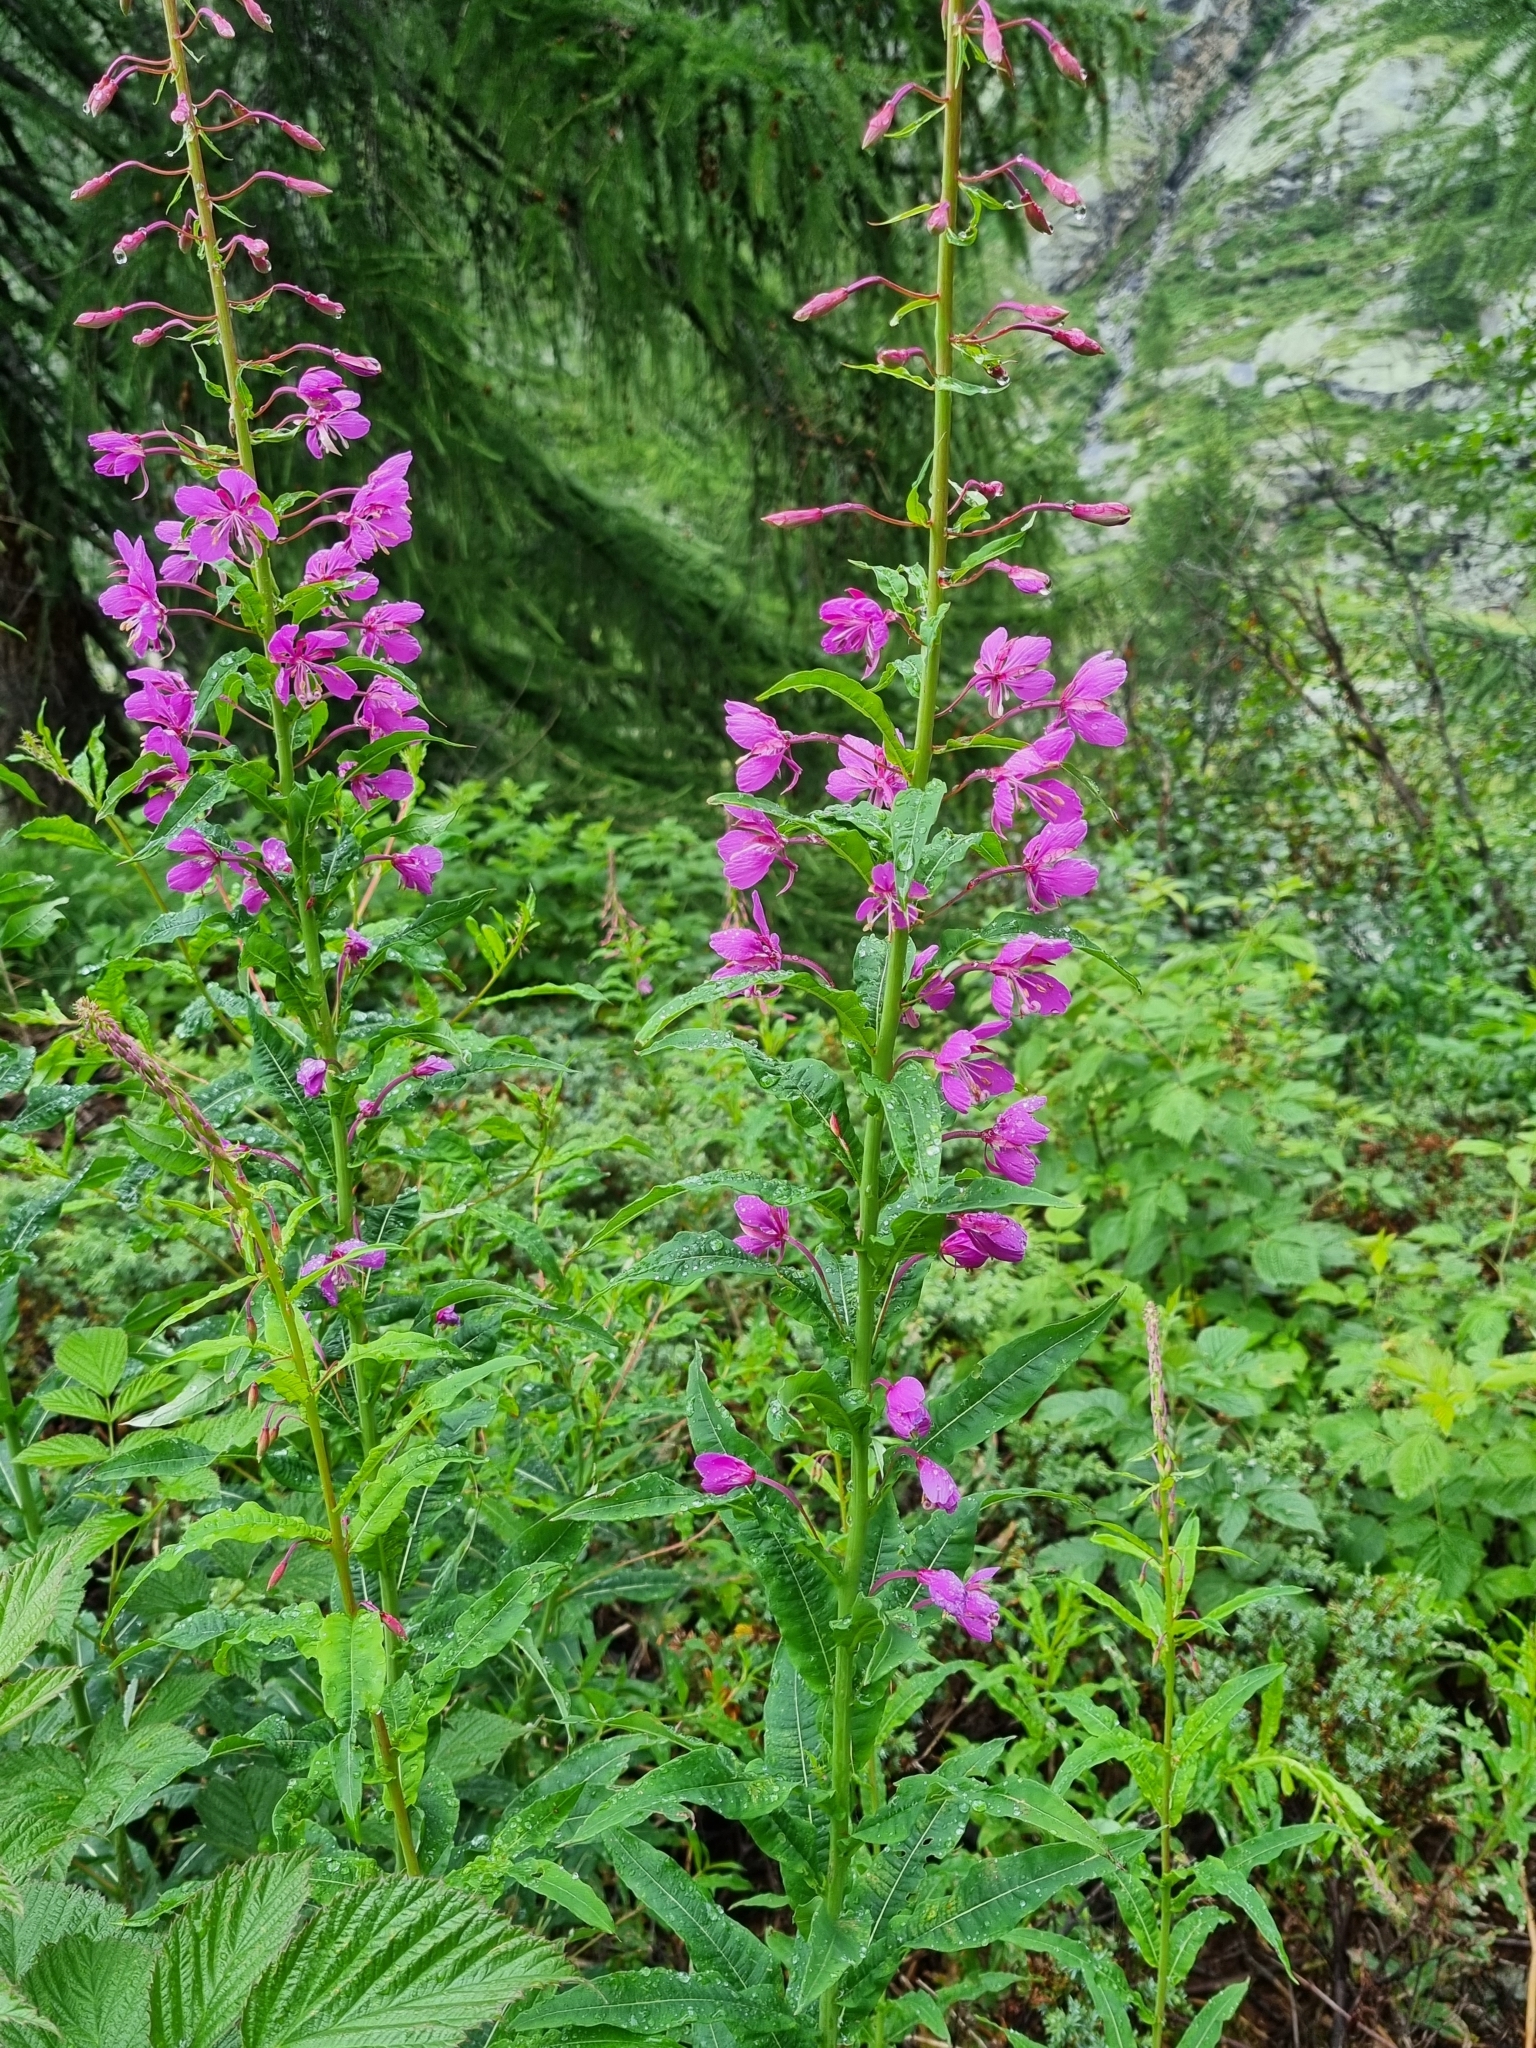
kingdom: Plantae
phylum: Tracheophyta
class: Magnoliopsida
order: Myrtales
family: Onagraceae
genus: Chamaenerion
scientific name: Chamaenerion angustifolium
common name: Fireweed
